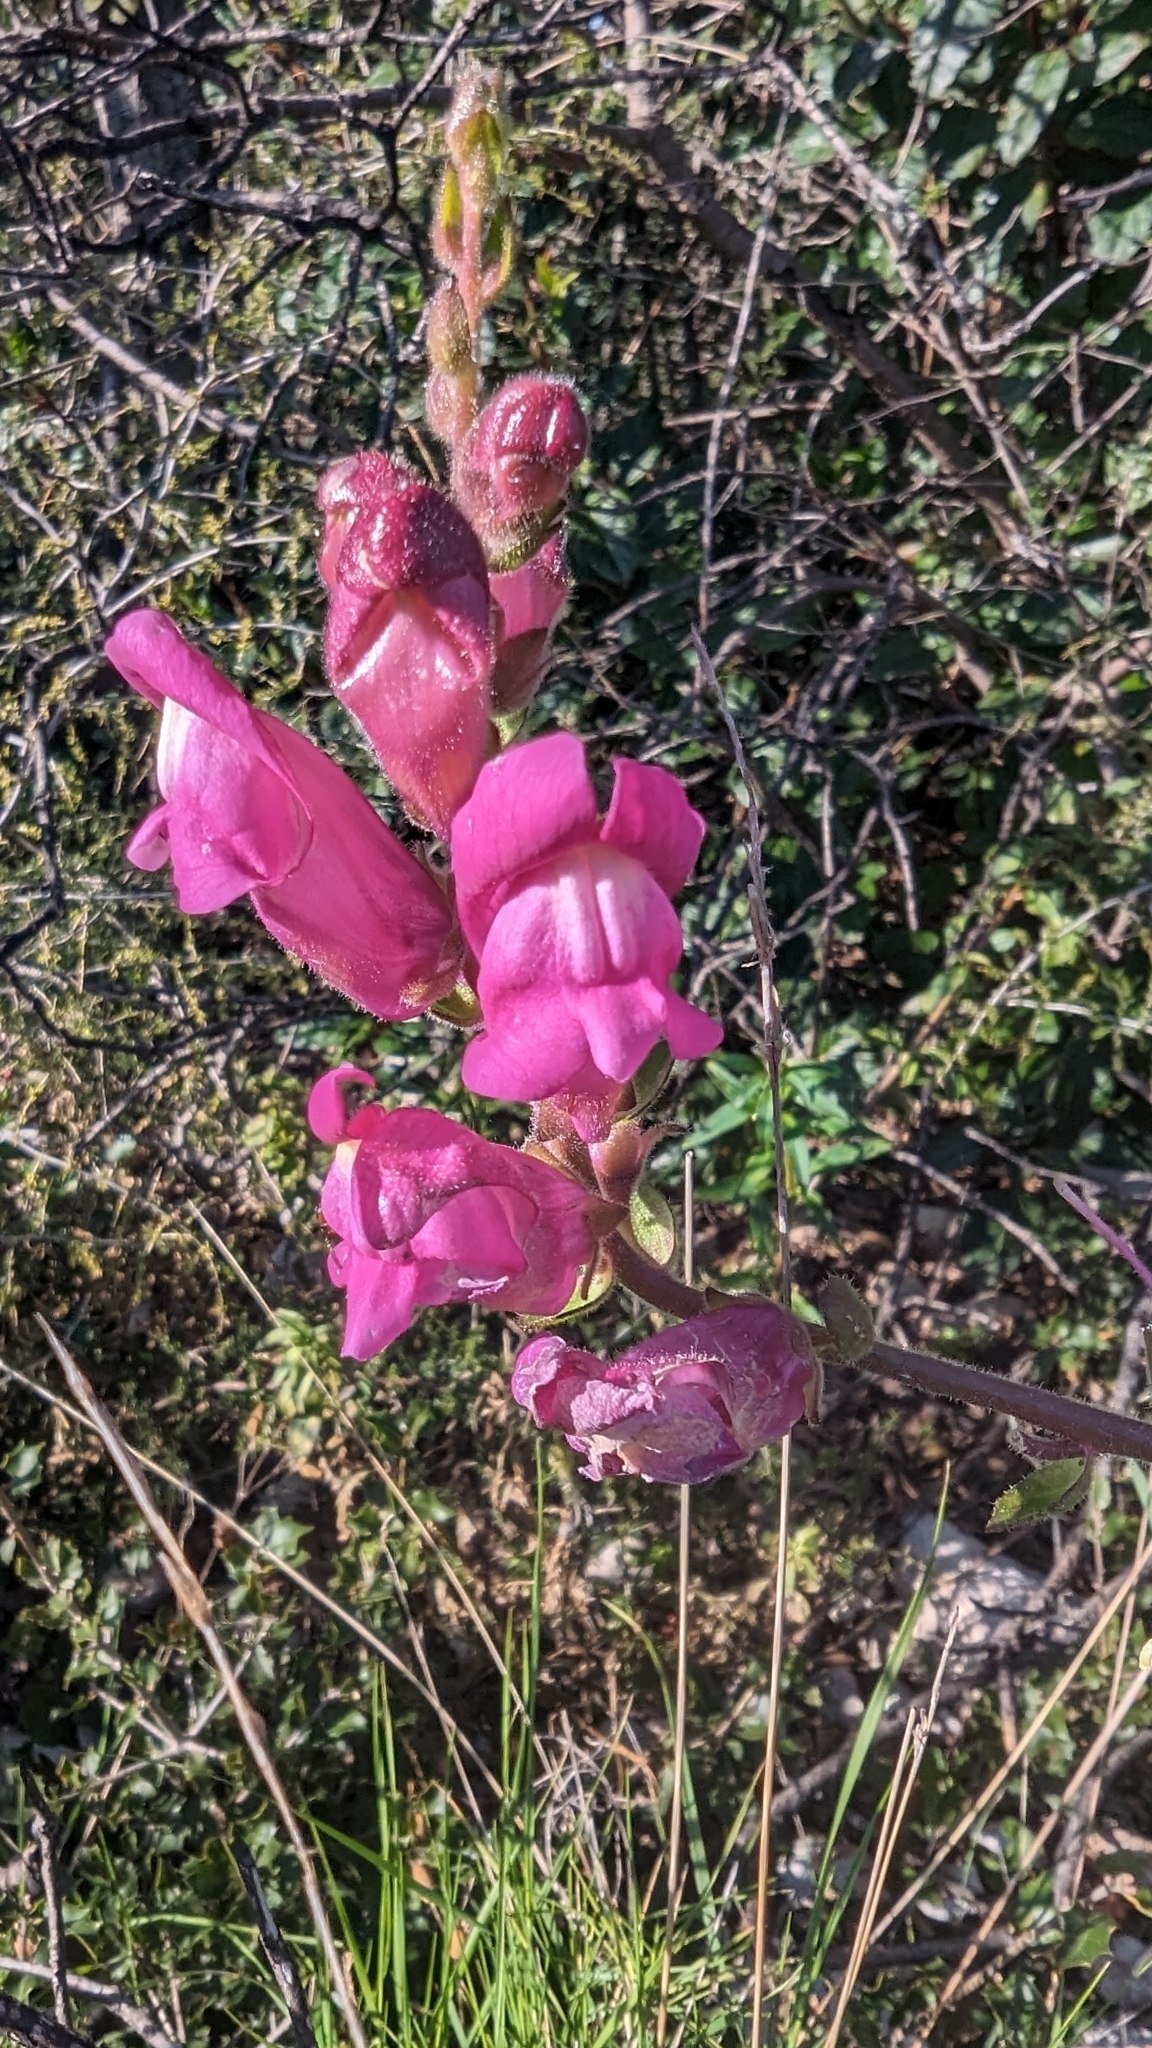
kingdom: Plantae
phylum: Tracheophyta
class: Magnoliopsida
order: Lamiales
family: Plantaginaceae
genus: Antirrhinum
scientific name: Antirrhinum majus
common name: Snapdragon
